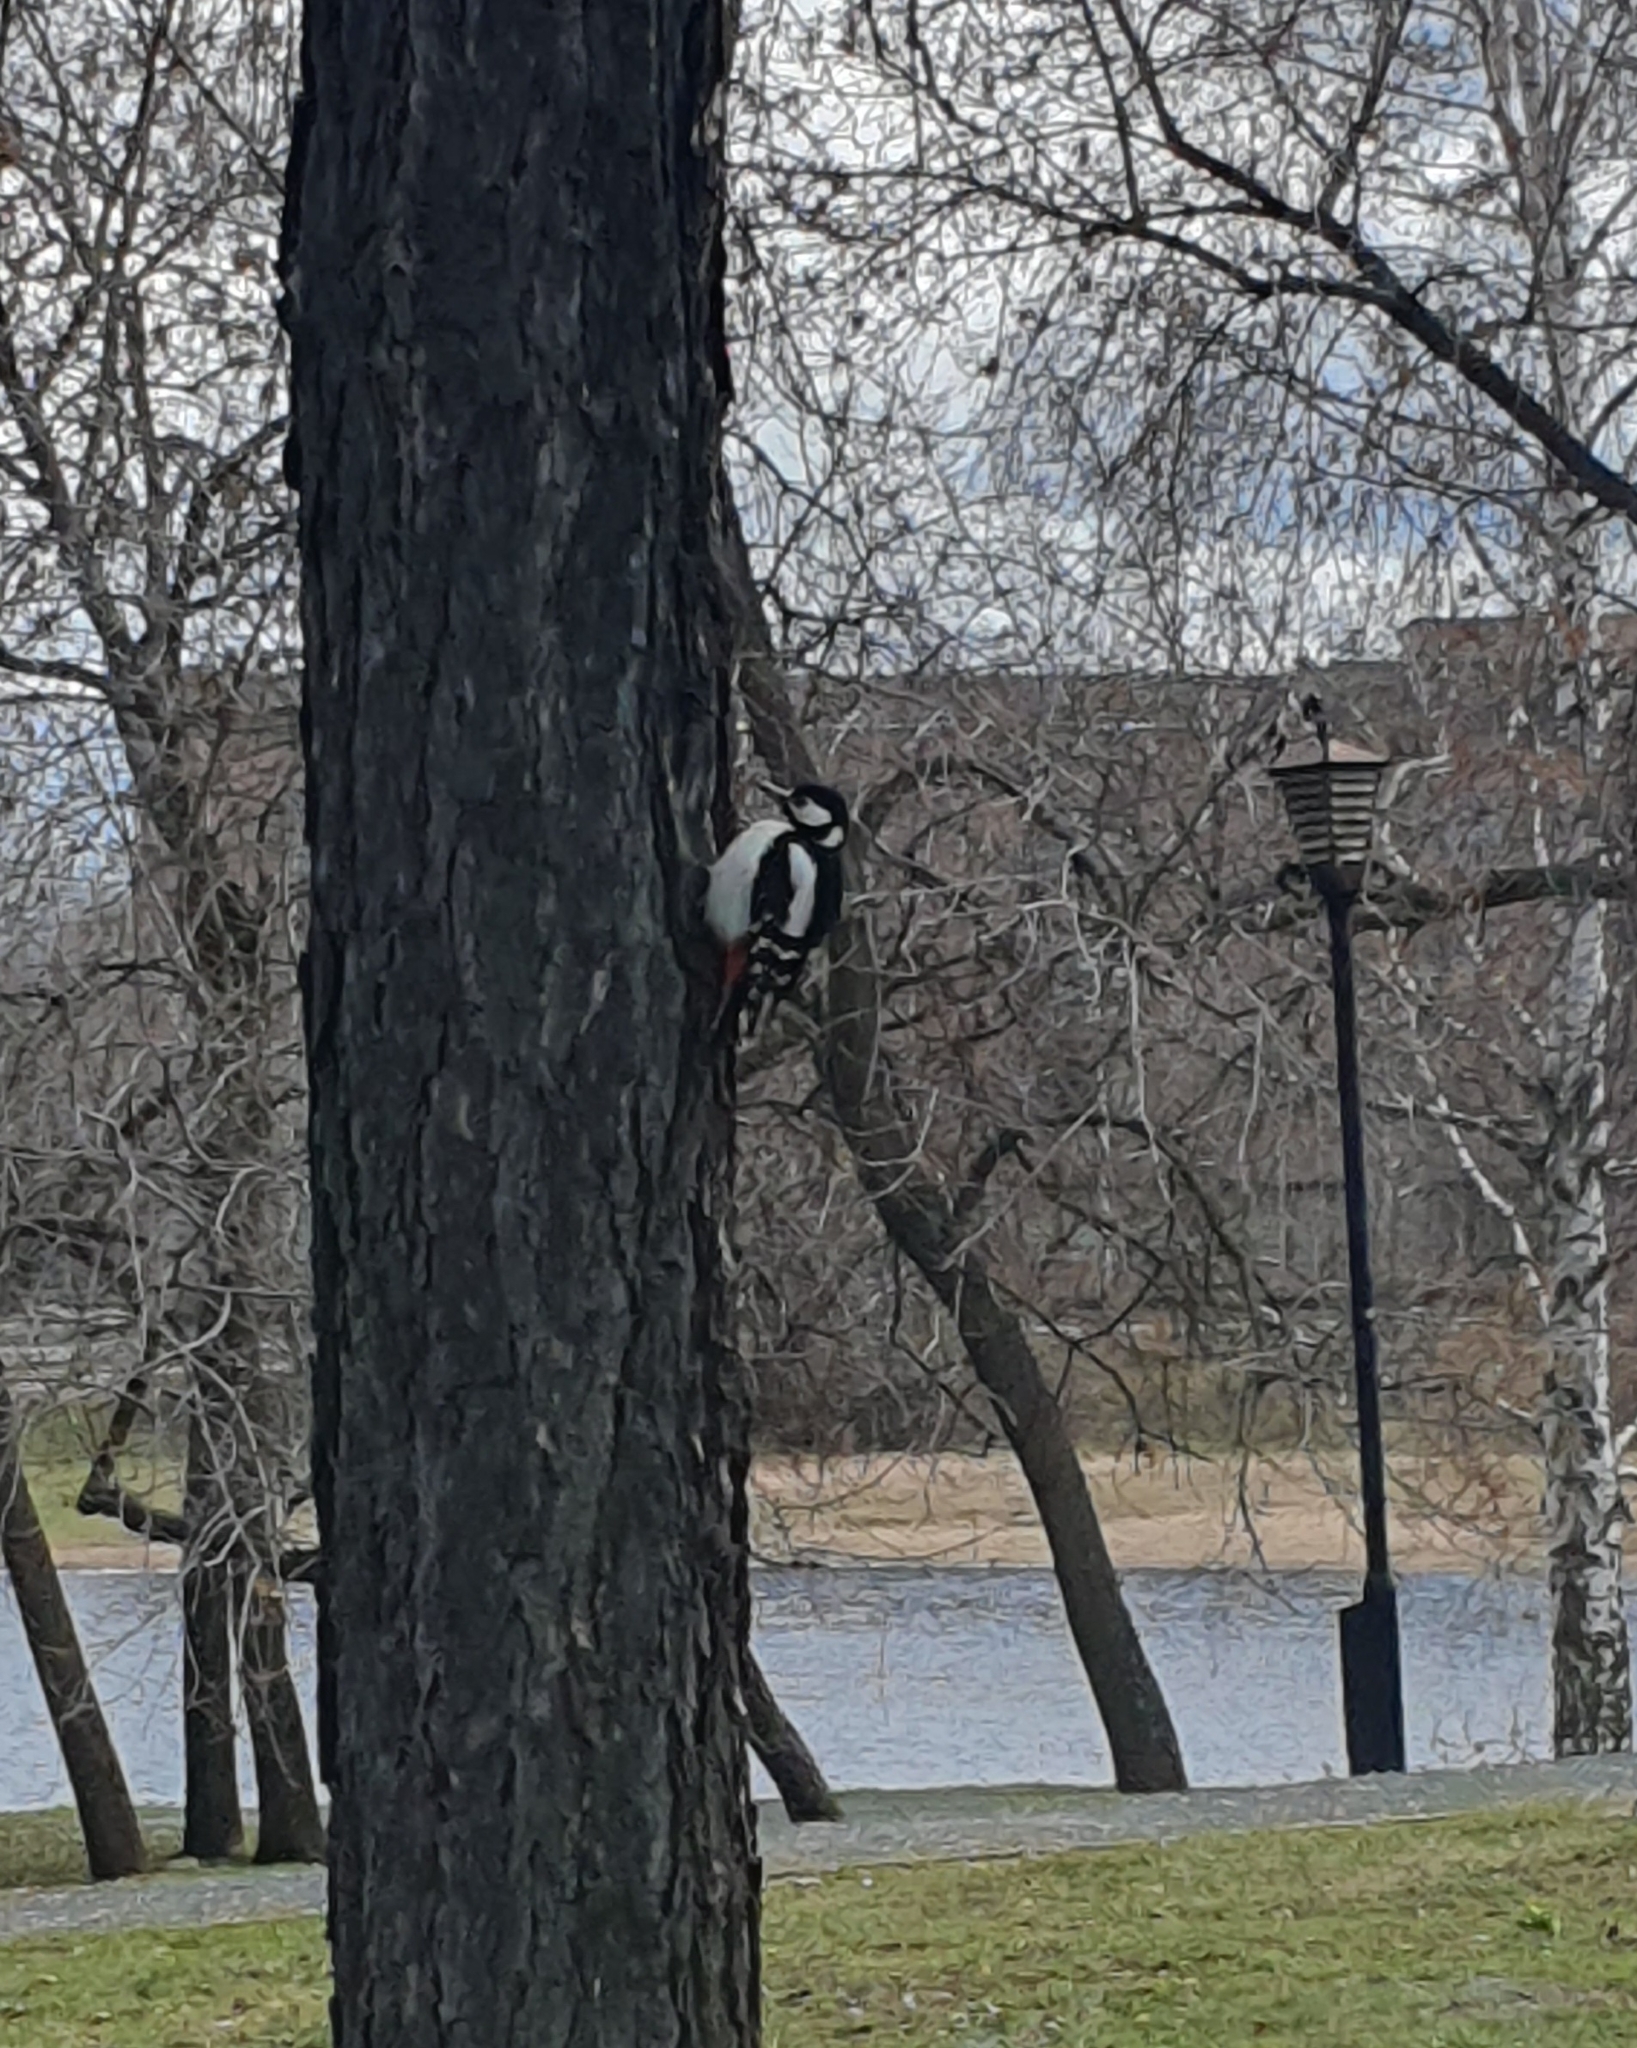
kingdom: Animalia
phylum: Chordata
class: Aves
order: Piciformes
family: Picidae
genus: Dendrocopos
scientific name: Dendrocopos major
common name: Great spotted woodpecker
